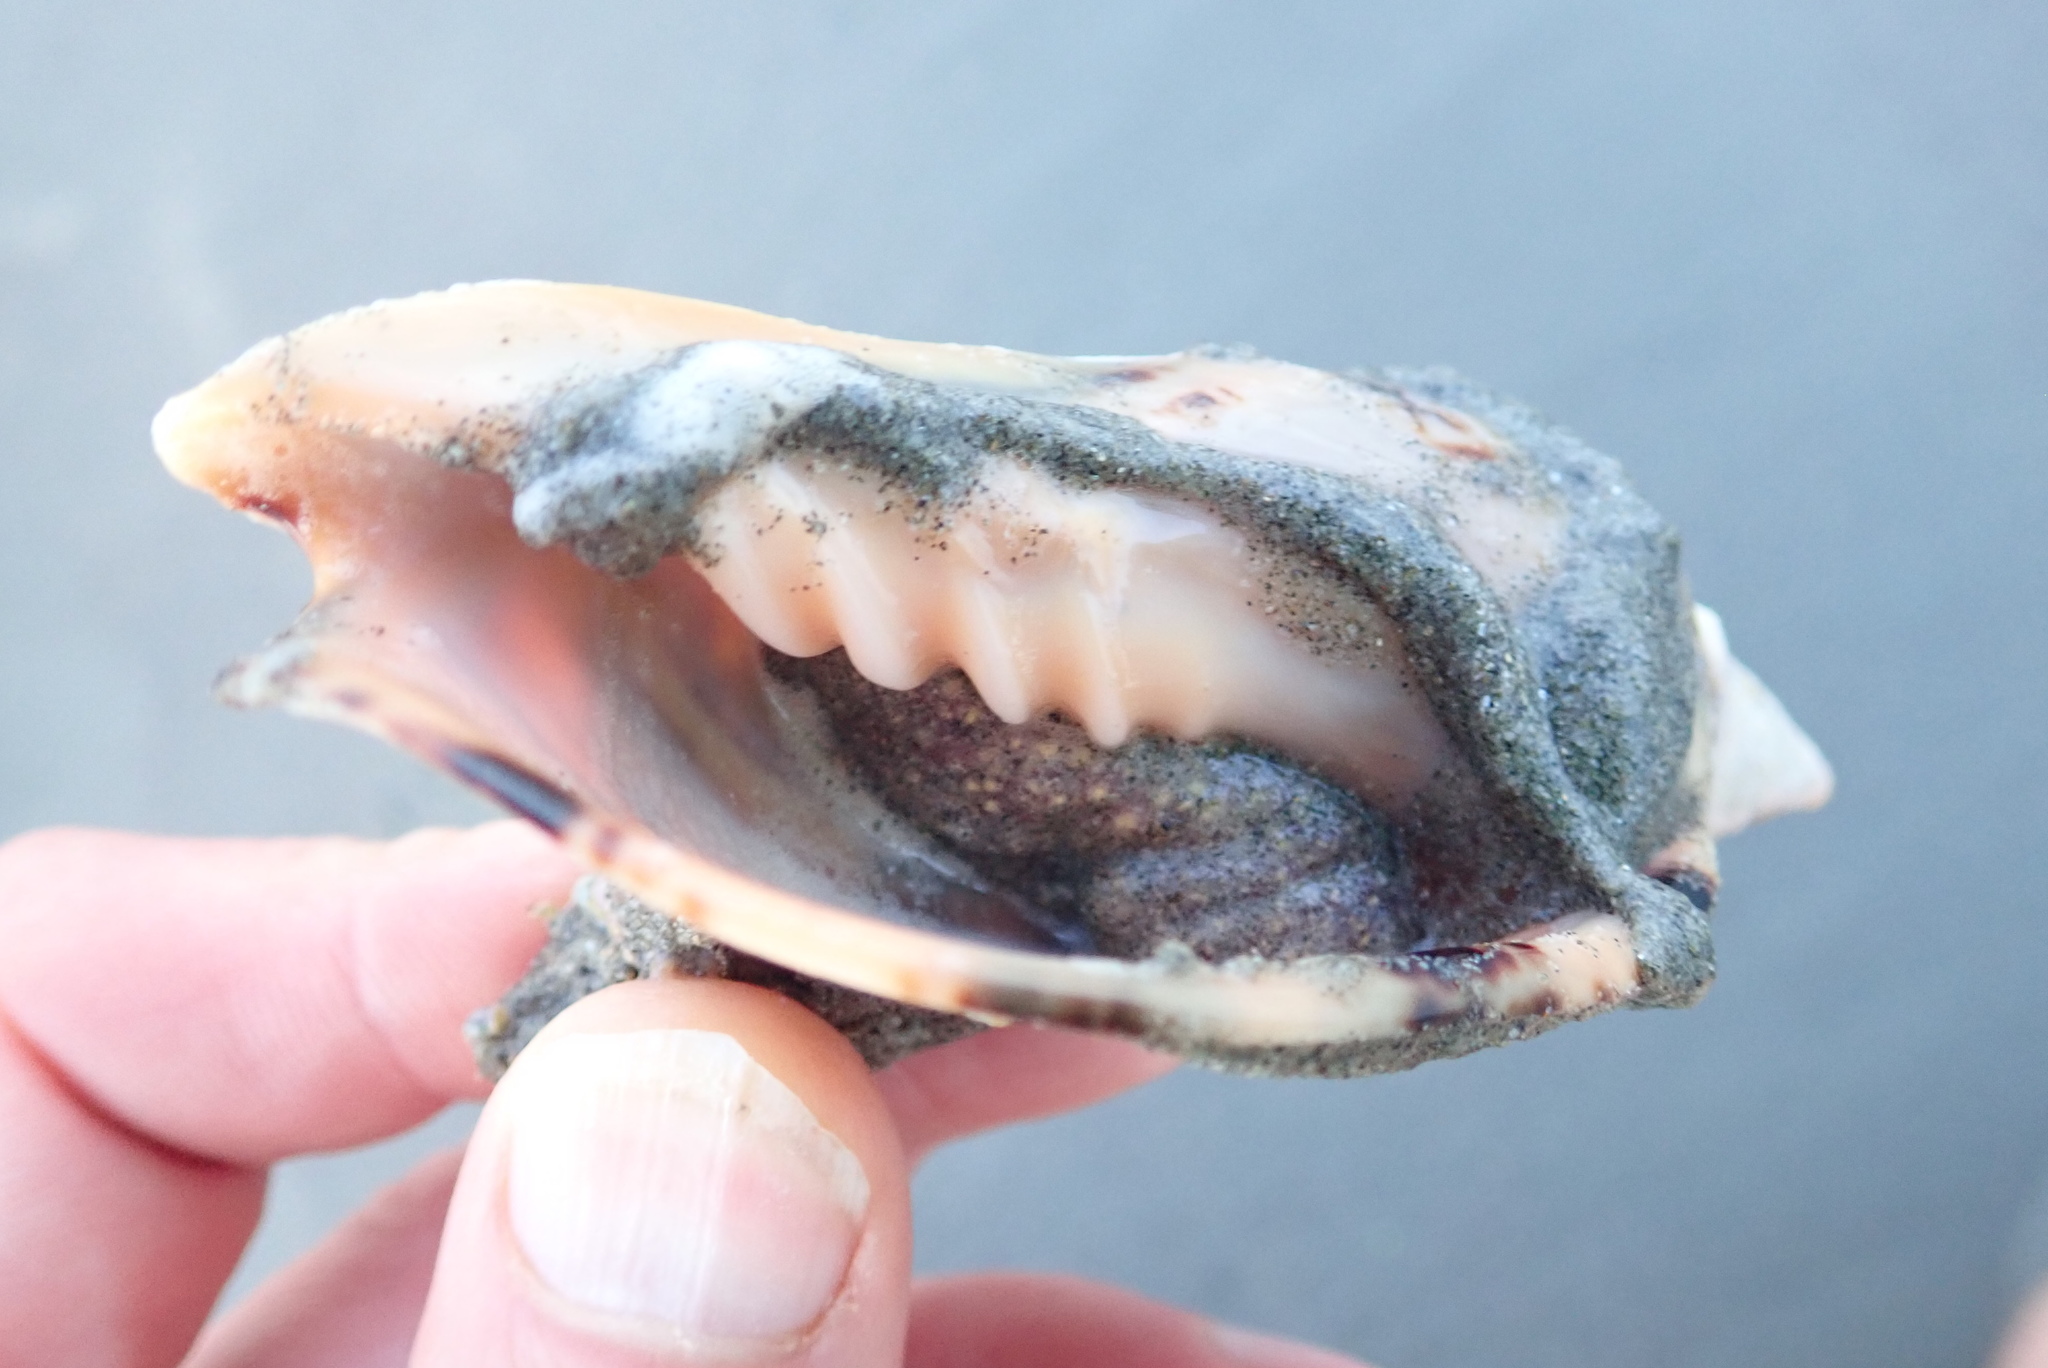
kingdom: Animalia
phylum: Mollusca
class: Gastropoda
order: Neogastropoda
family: Volutidae
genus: Alcithoe
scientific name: Alcithoe arabica
